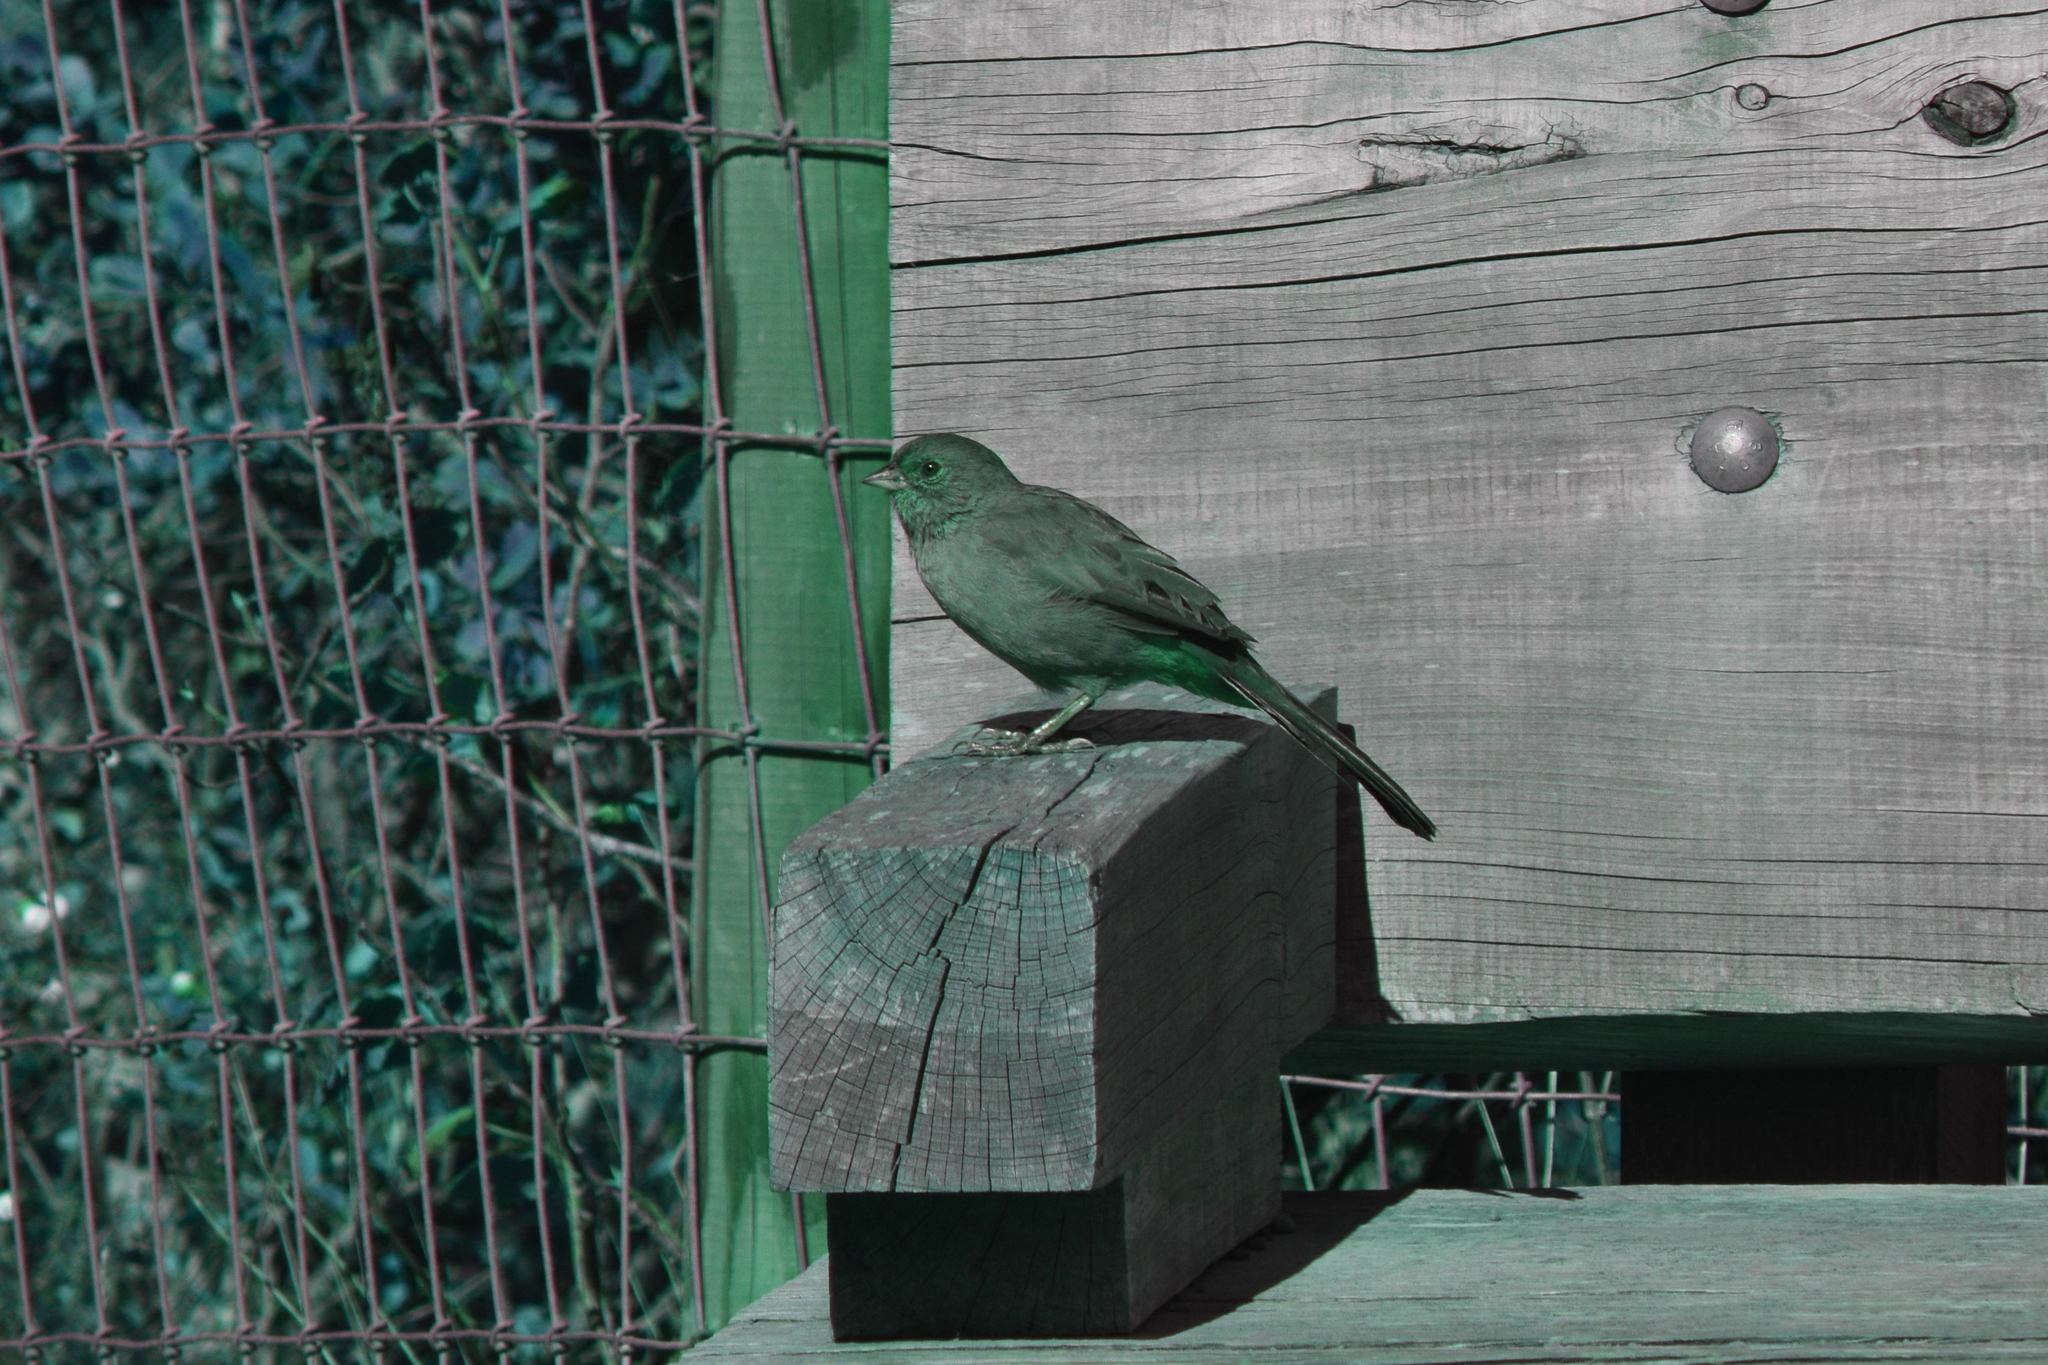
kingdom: Animalia
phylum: Chordata
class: Aves
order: Passeriformes
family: Passerellidae
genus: Melozone
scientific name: Melozone crissalis
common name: California towhee
